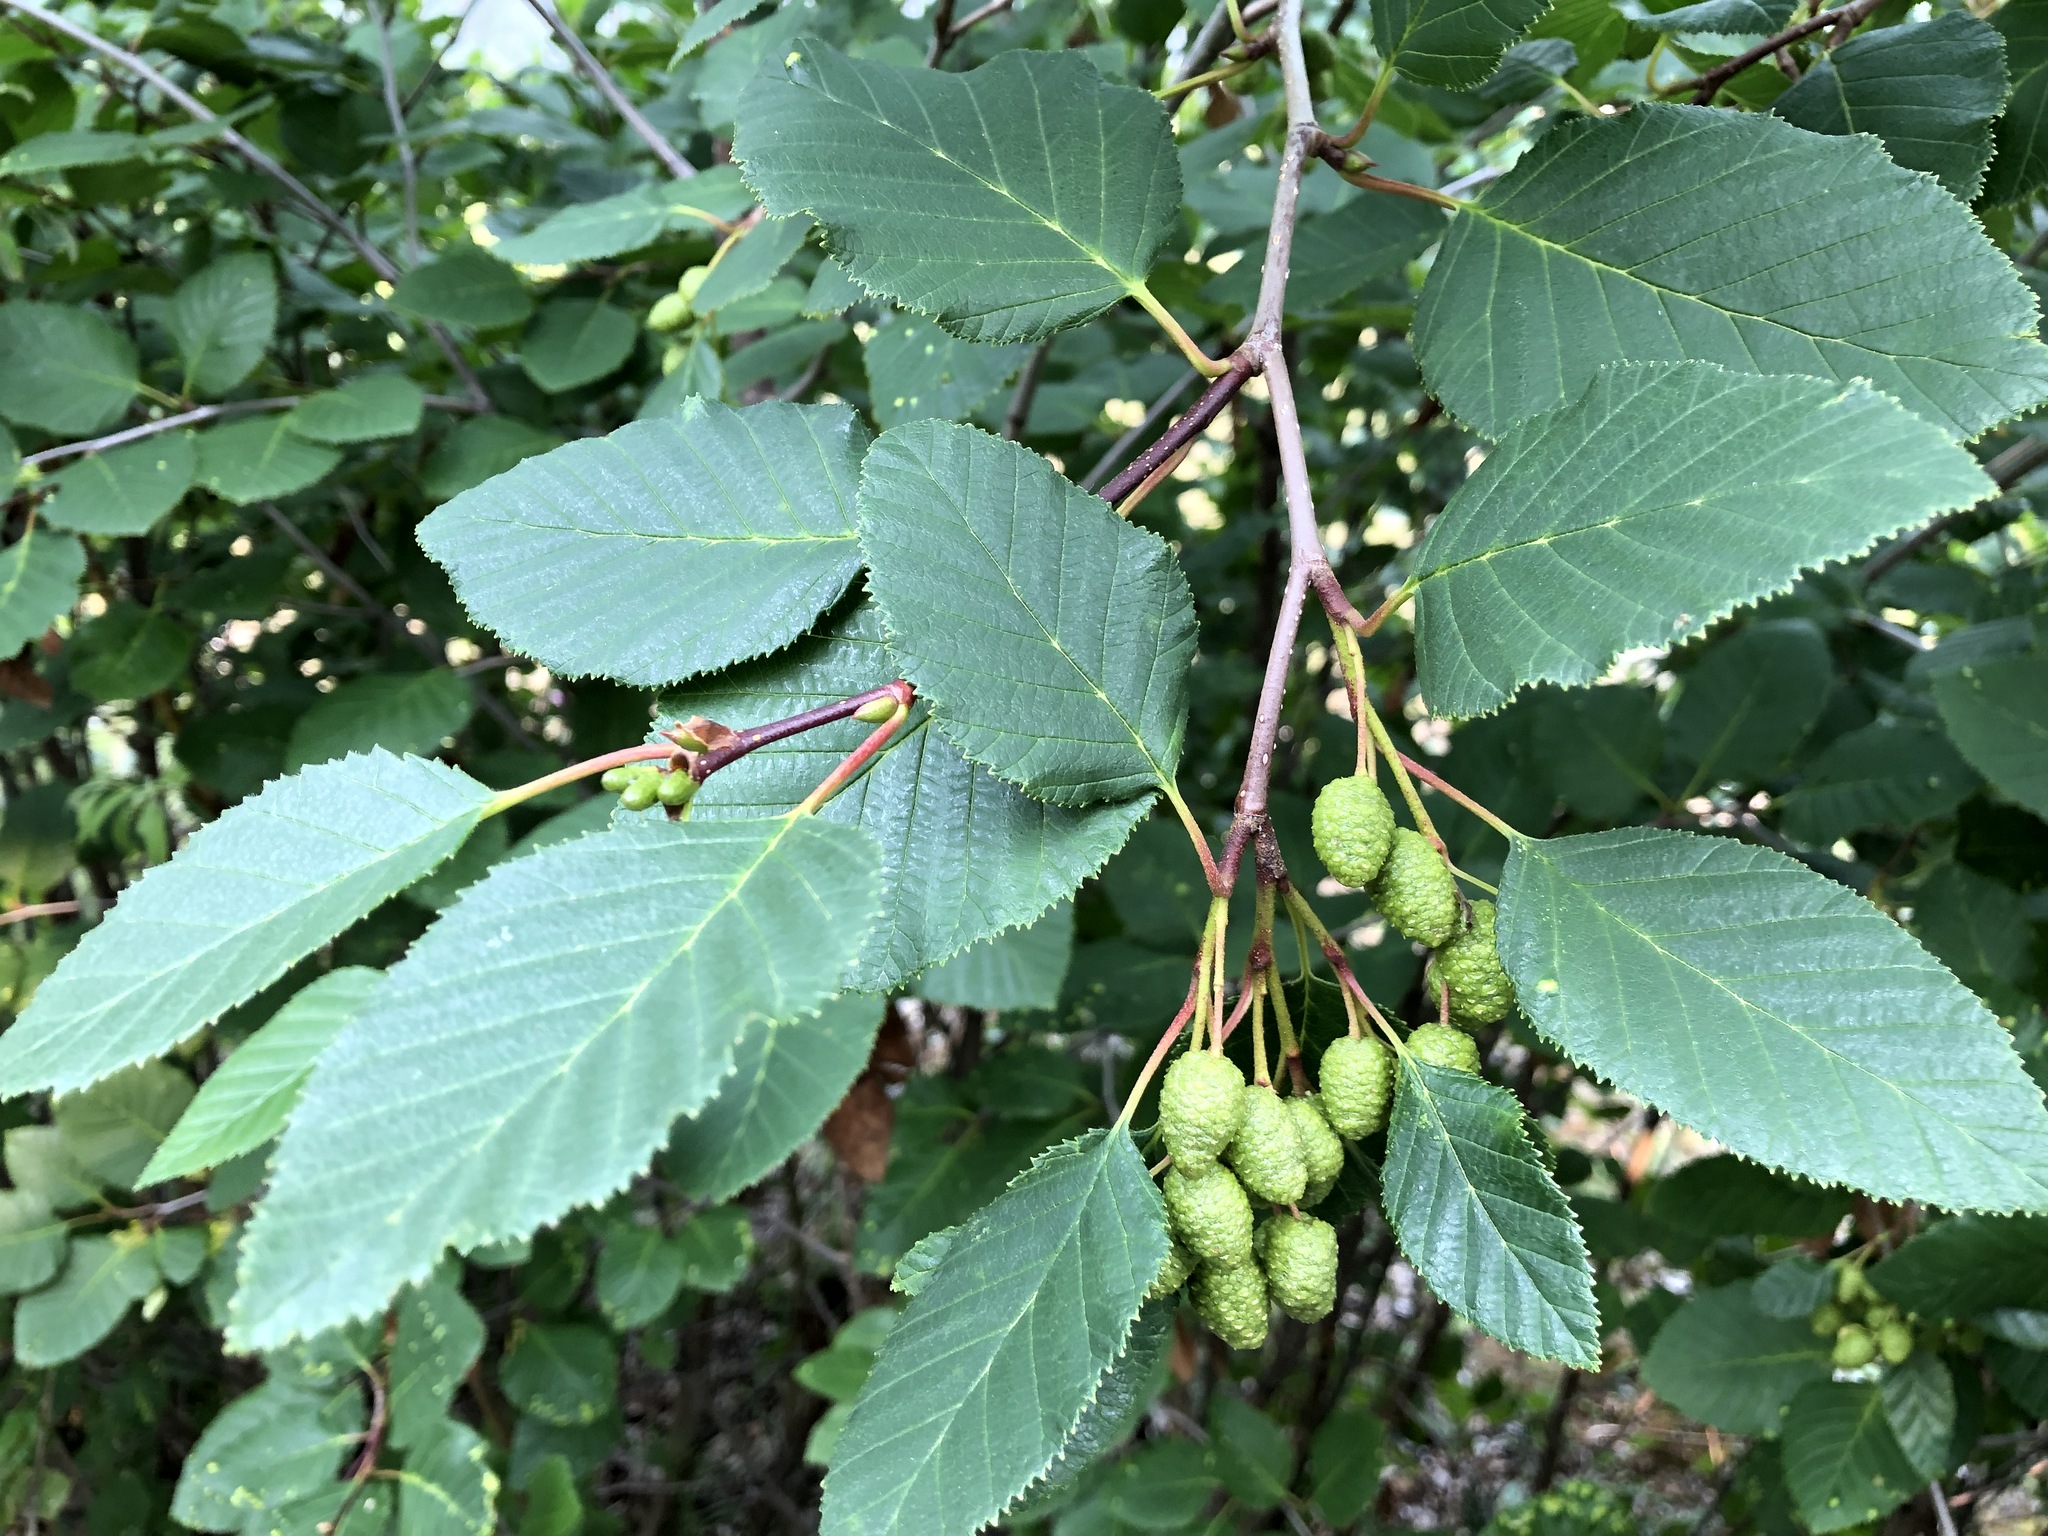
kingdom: Plantae
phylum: Tracheophyta
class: Magnoliopsida
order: Fagales
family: Betulaceae
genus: Alnus
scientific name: Alnus alnobetula
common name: Green alder
